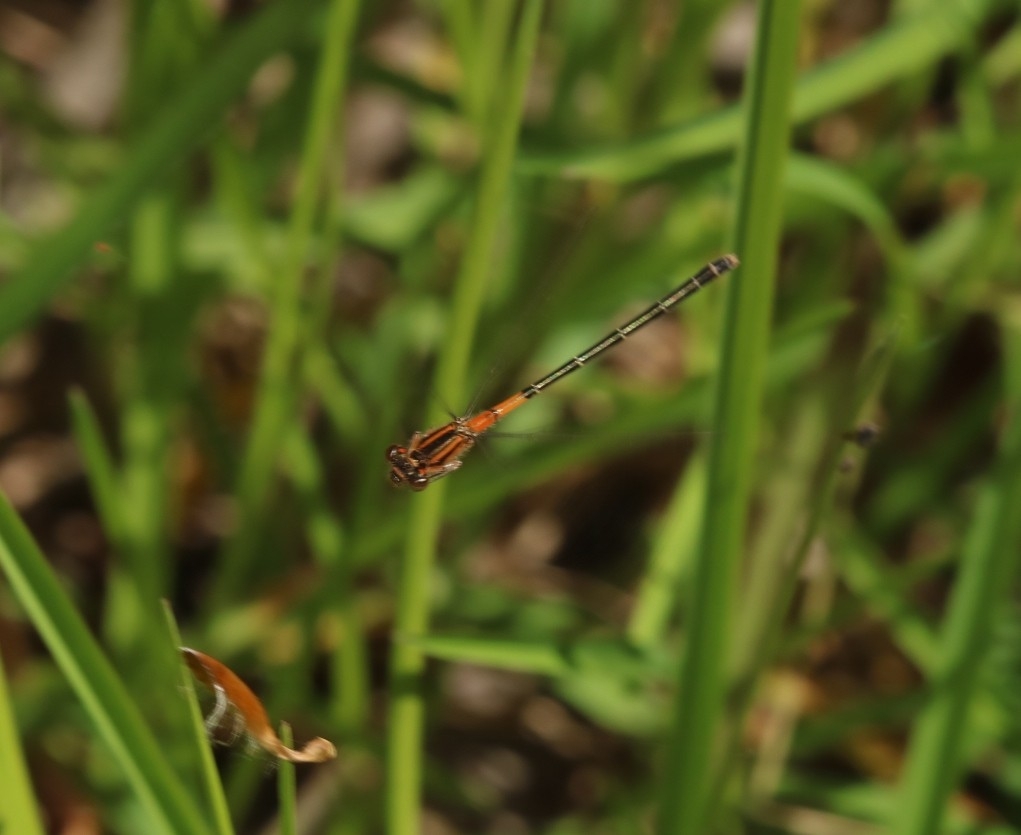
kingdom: Animalia
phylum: Arthropoda
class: Insecta
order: Odonata
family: Coenagrionidae
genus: Ischnura
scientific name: Ischnura verticalis
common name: Eastern forktail
